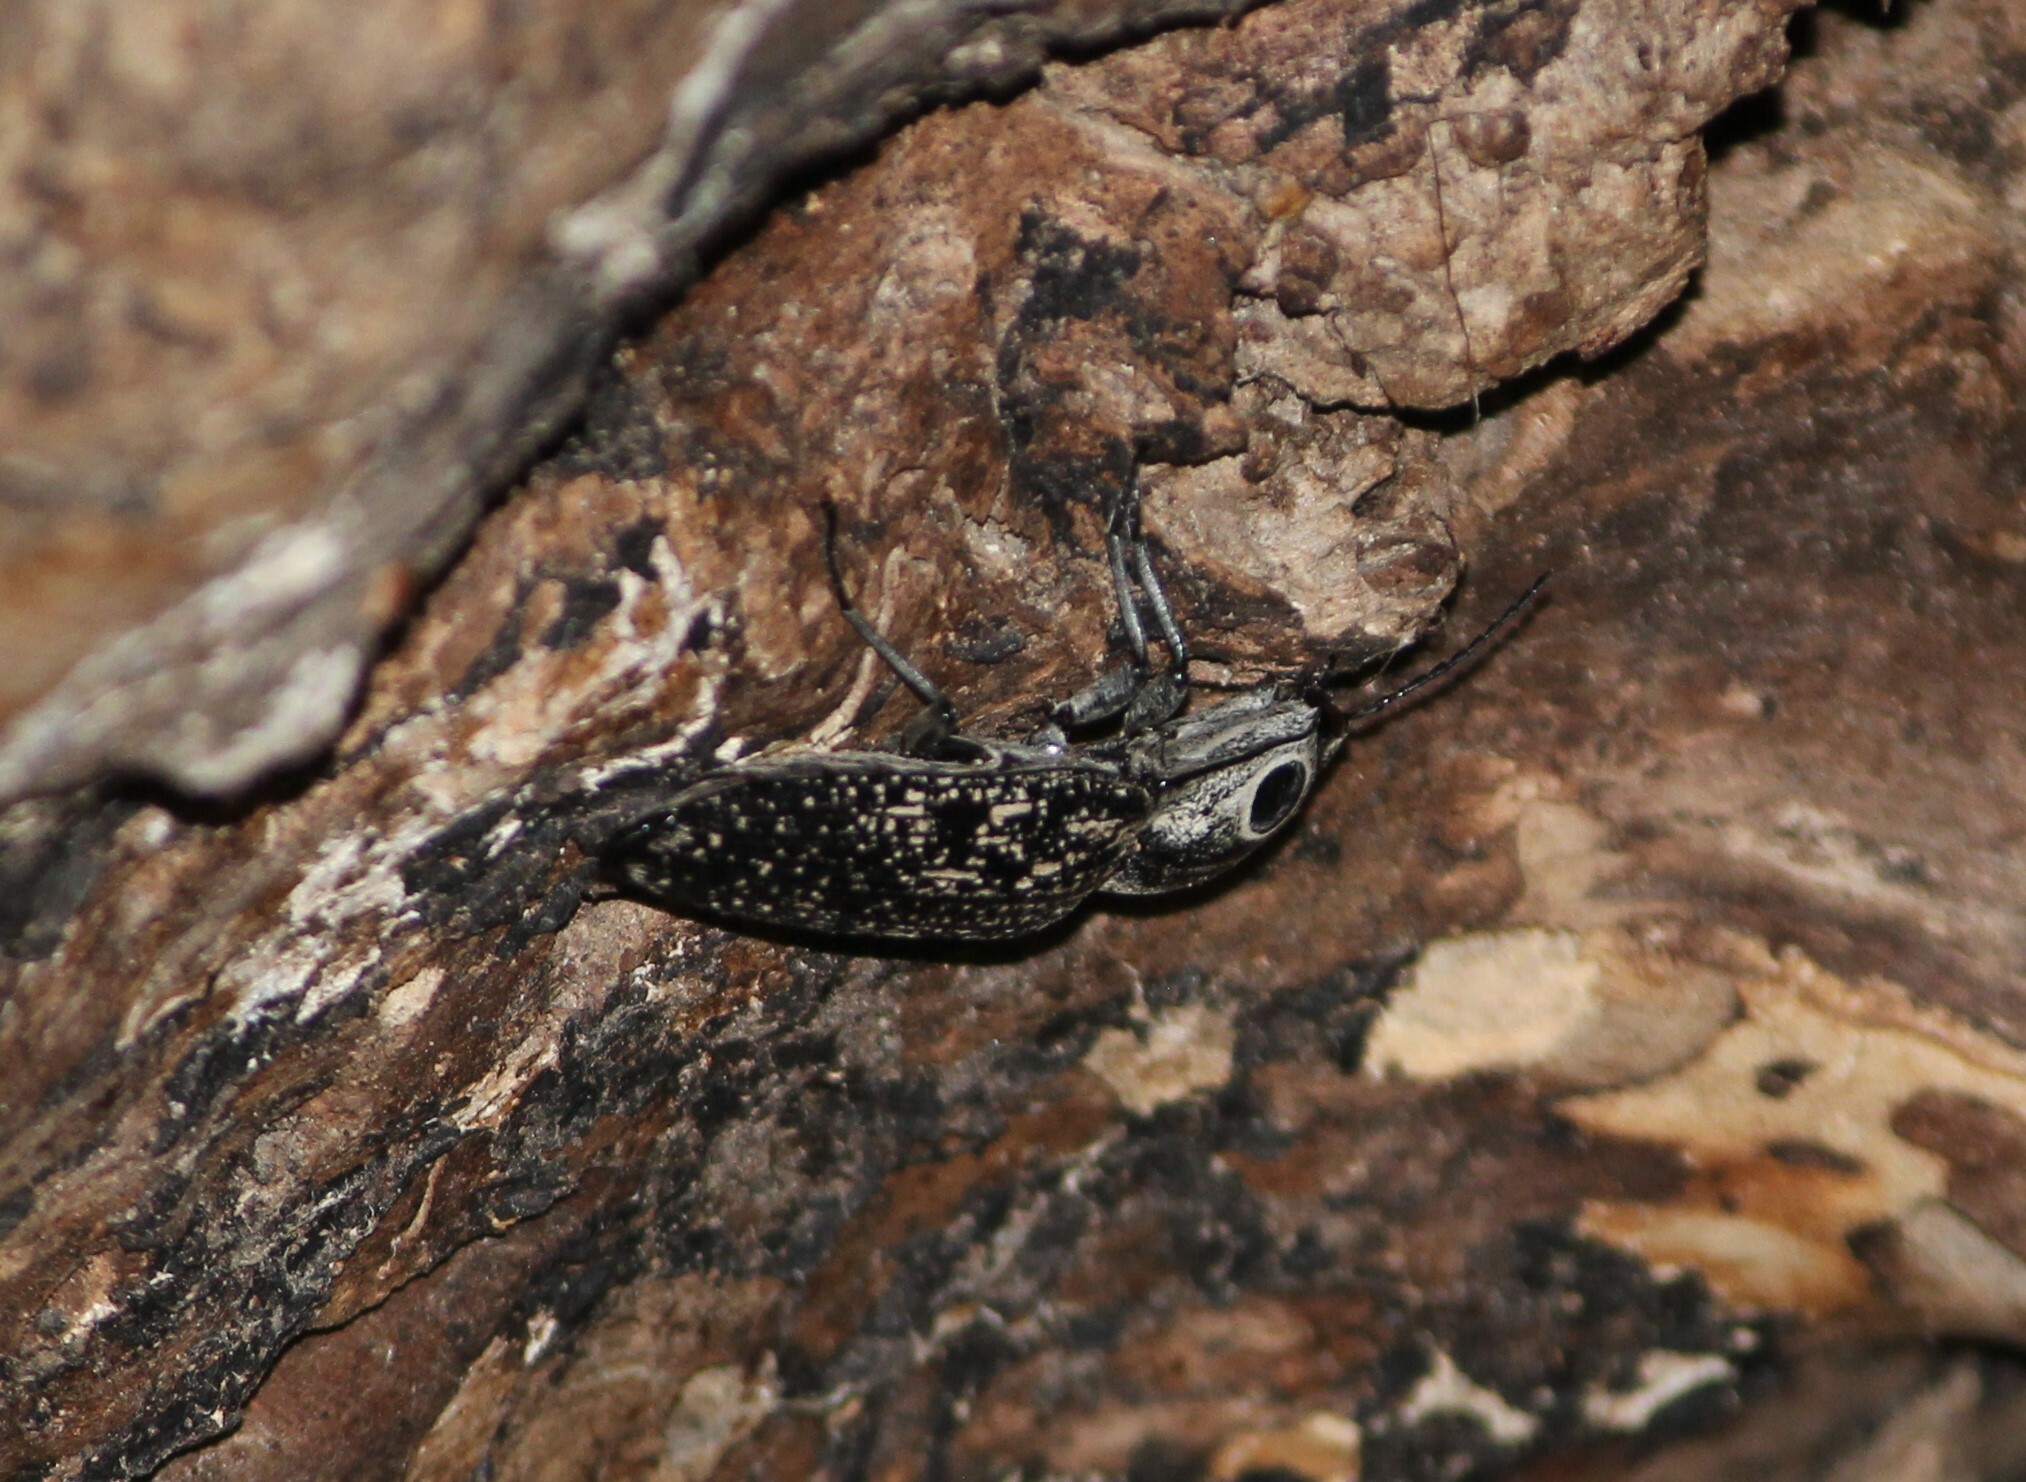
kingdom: Animalia
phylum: Arthropoda
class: Insecta
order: Coleoptera
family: Elateridae
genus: Alaus
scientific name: Alaus oculatus
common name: Eastern eyed click beetle
